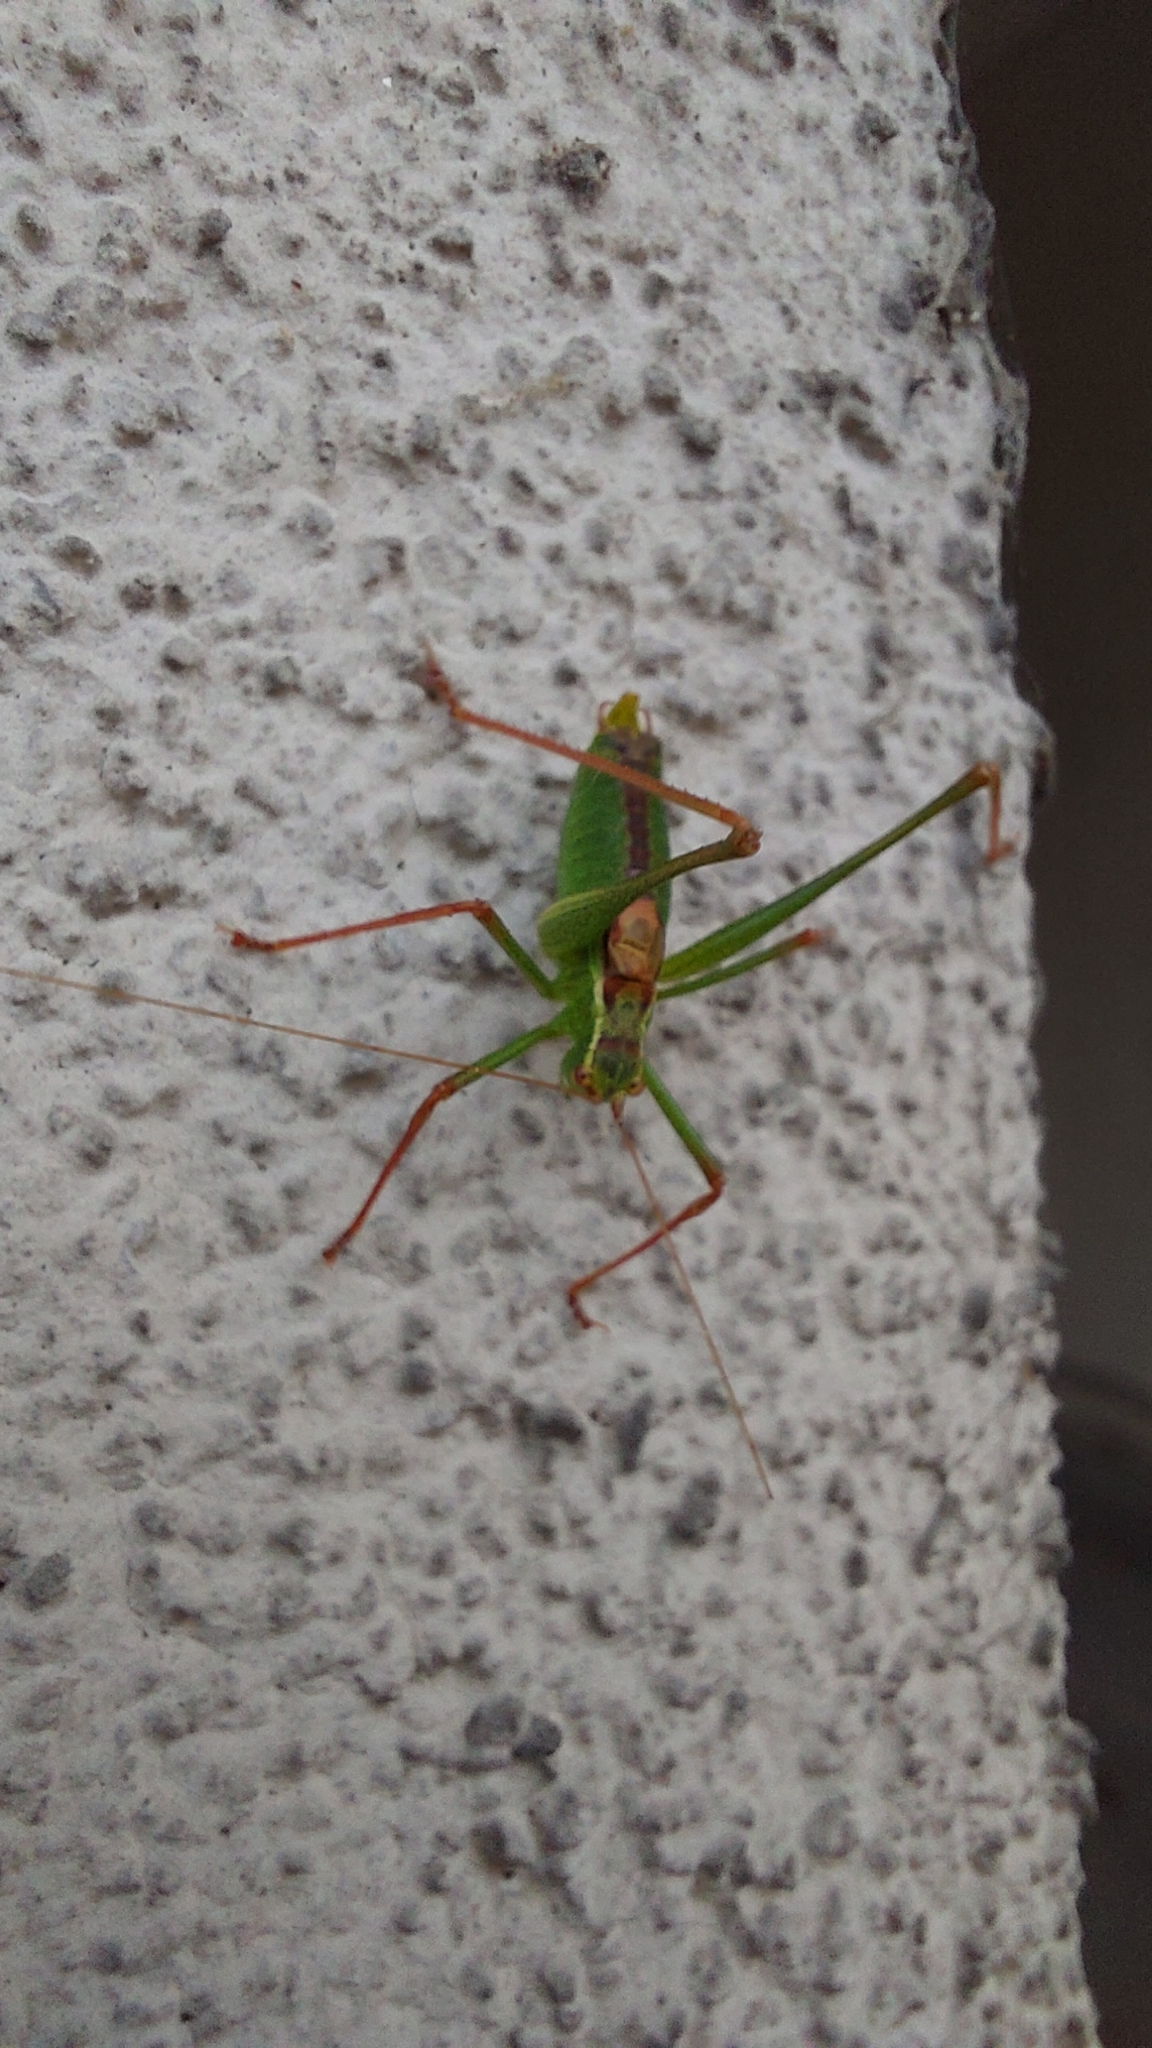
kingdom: Animalia
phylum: Arthropoda
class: Insecta
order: Orthoptera
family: Tettigoniidae
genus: Leptophyes
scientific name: Leptophyes punctatissima
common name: Speckled bush-cricket
